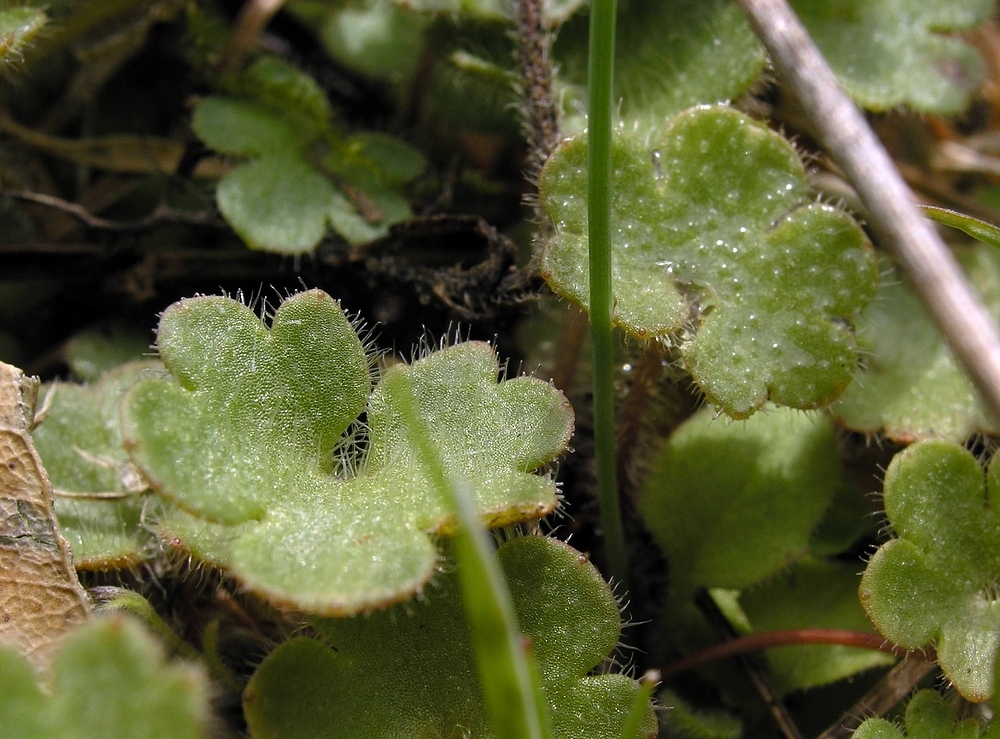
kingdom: Plantae
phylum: Tracheophyta
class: Magnoliopsida
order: Saxifragales
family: Saxifragaceae
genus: Saxifraga
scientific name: Saxifraga granulata
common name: Meadow saxifrage
